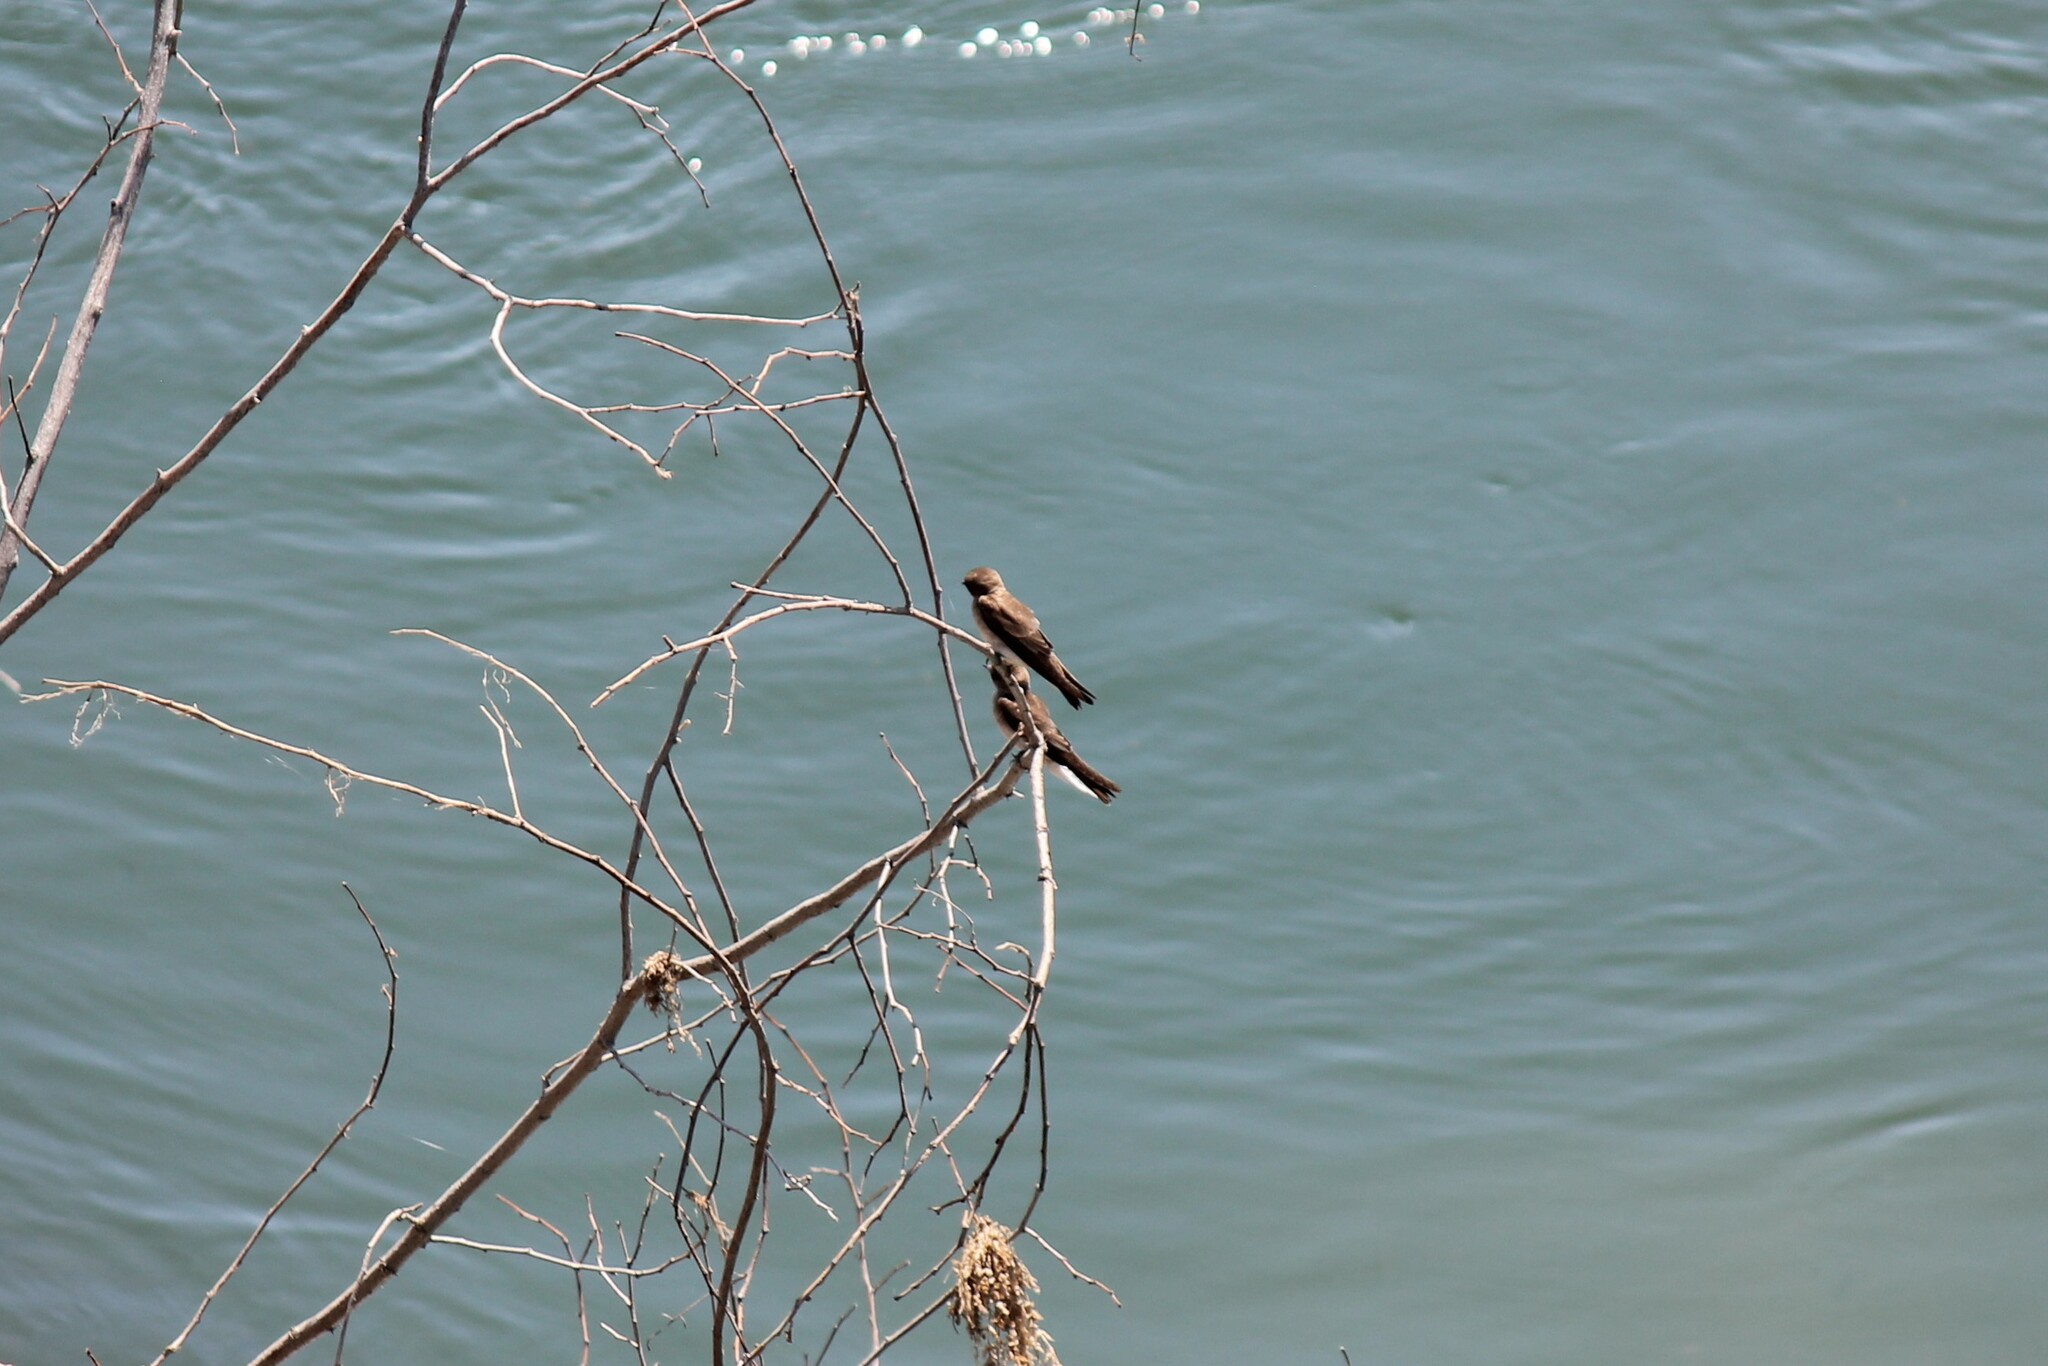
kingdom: Animalia
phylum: Chordata
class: Aves
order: Passeriformes
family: Hirundinidae
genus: Stelgidopteryx
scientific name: Stelgidopteryx serripennis
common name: Northern rough-winged swallow
